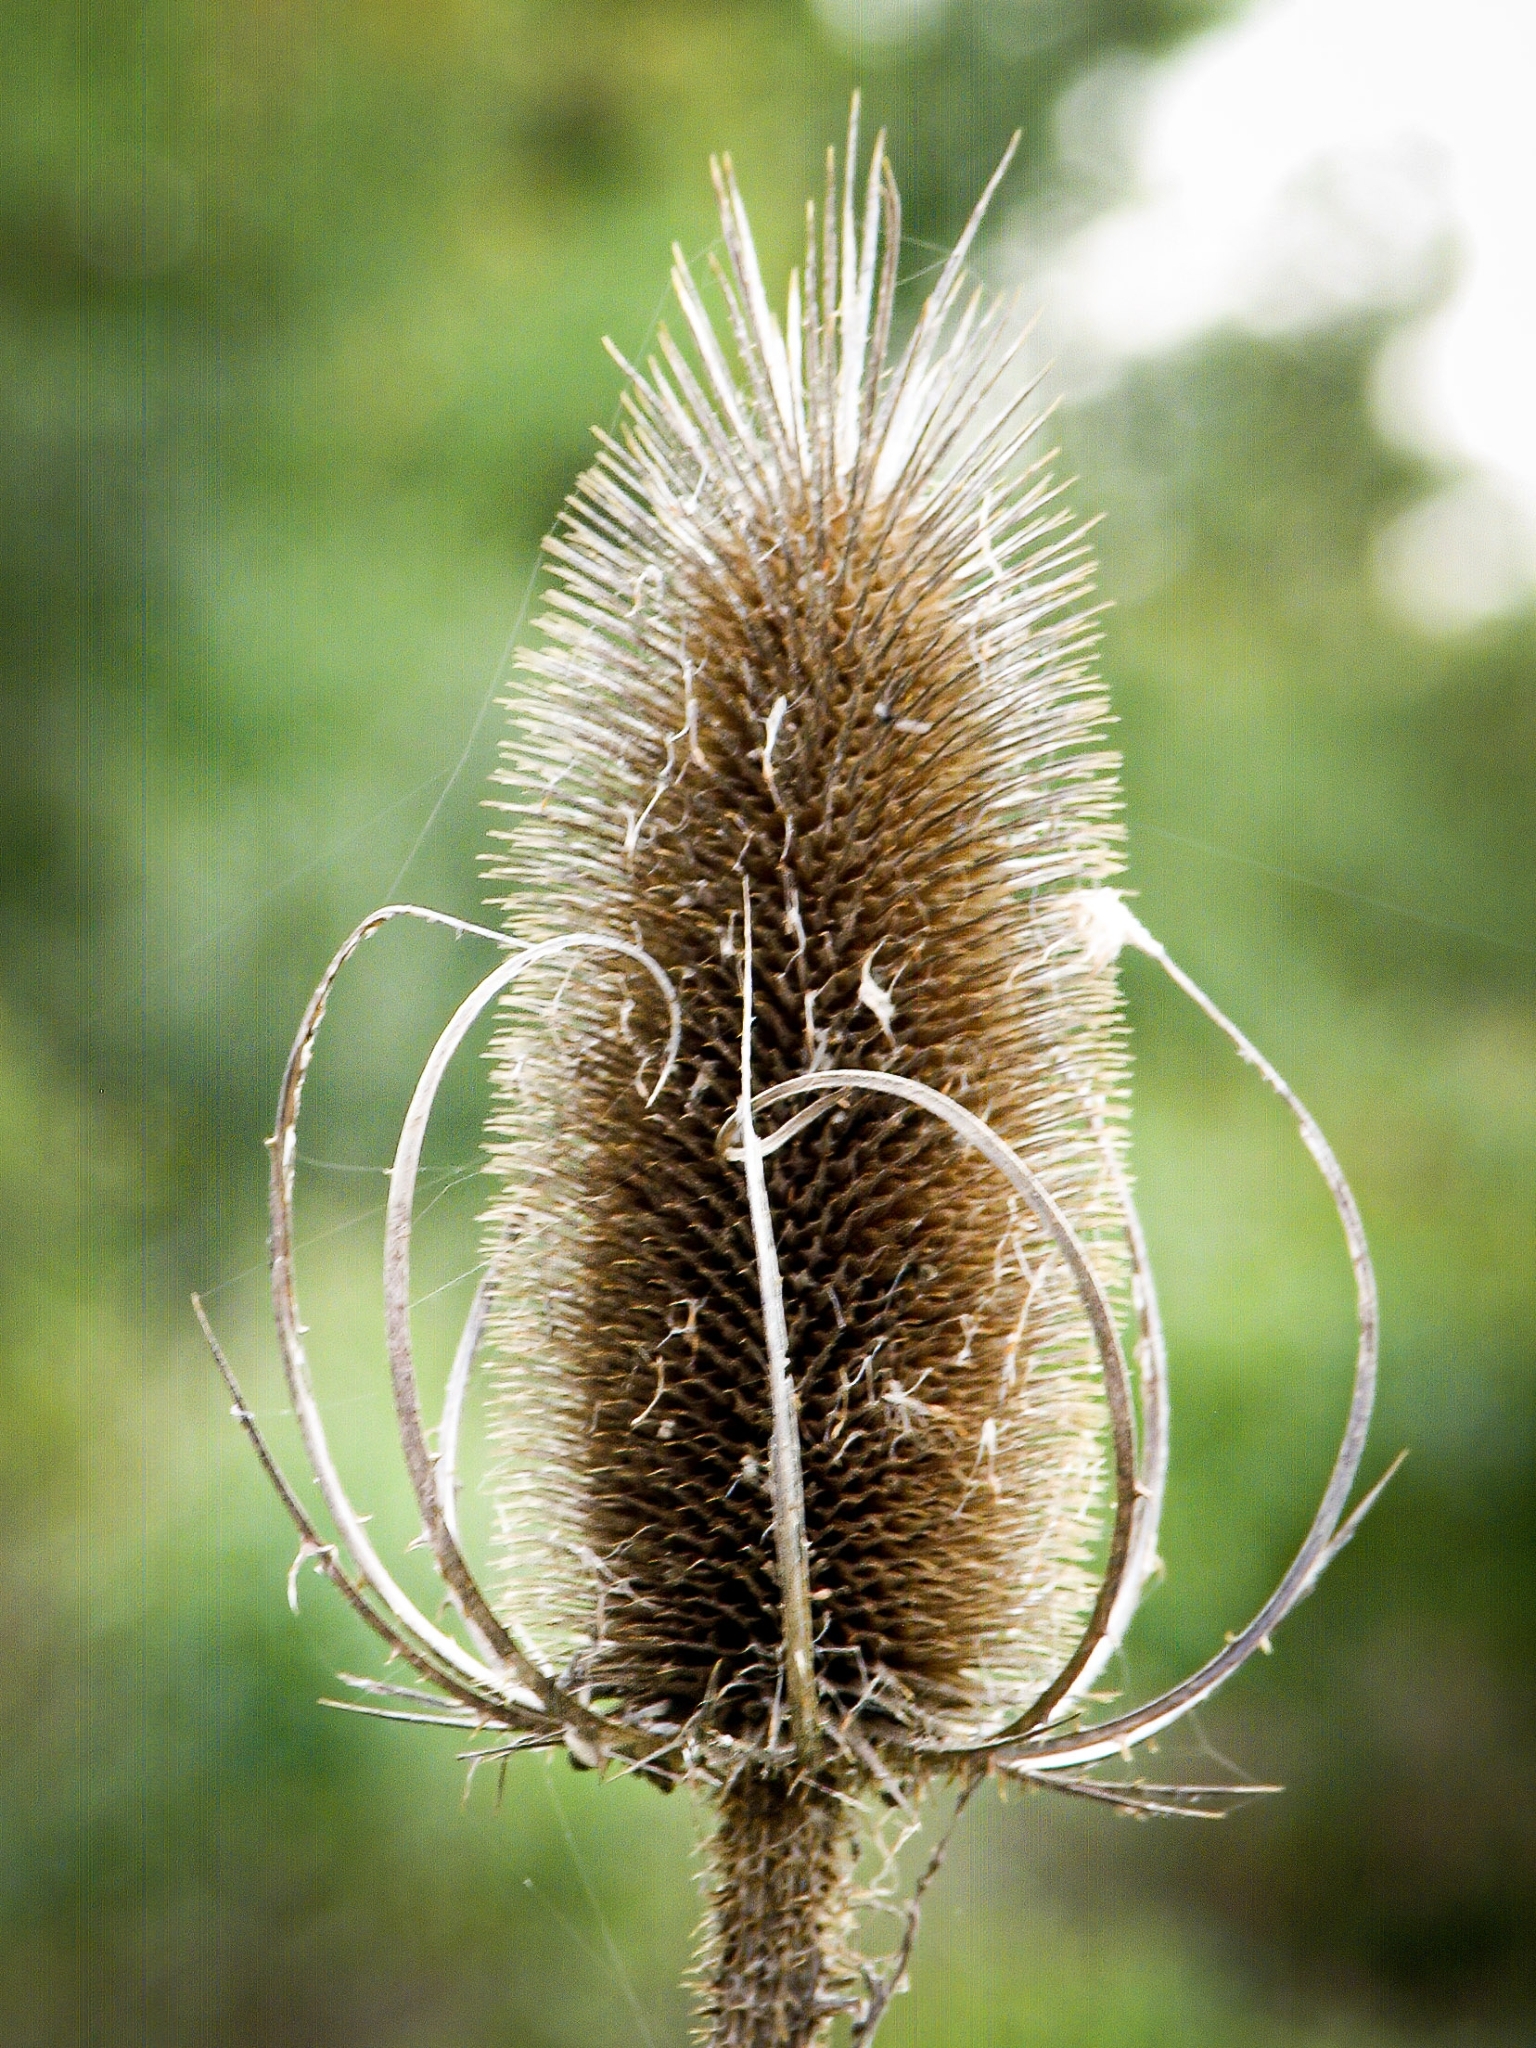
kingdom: Plantae
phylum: Tracheophyta
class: Magnoliopsida
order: Dipsacales
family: Caprifoliaceae
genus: Dipsacus
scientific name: Dipsacus fullonum
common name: Teasel
